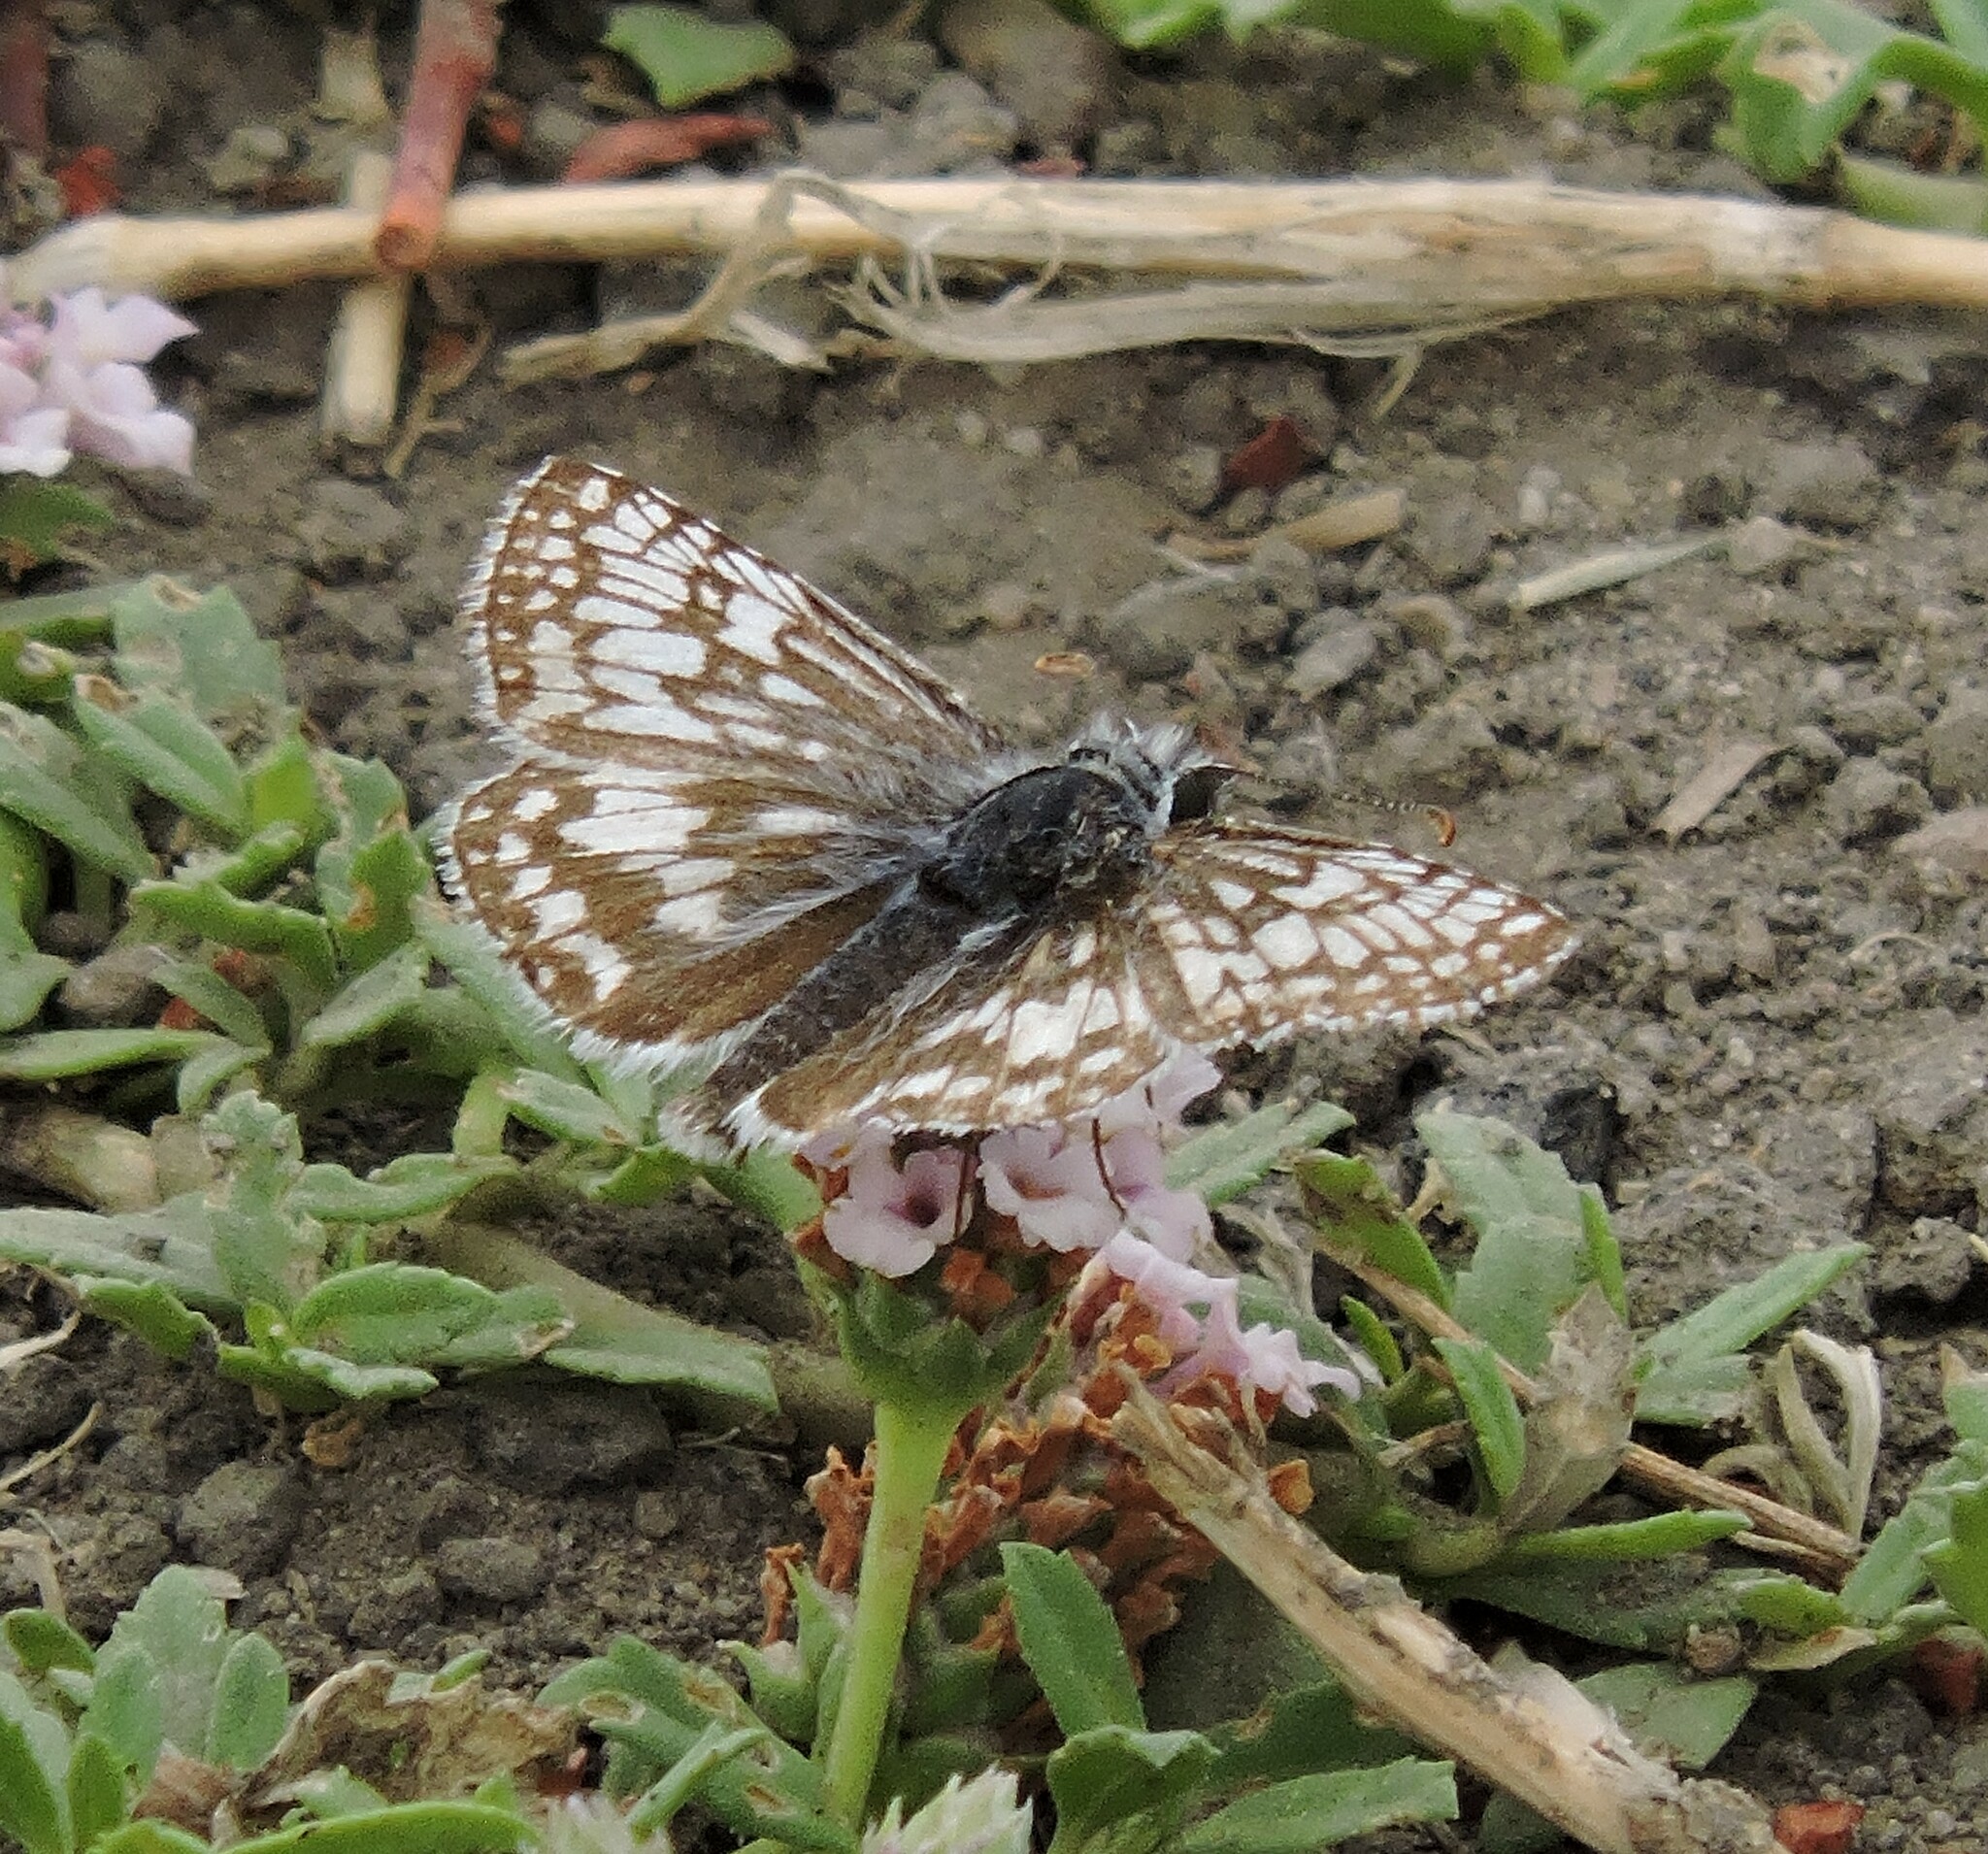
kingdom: Animalia
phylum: Arthropoda
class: Insecta
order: Lepidoptera
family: Hesperiidae
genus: Burnsius
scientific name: Burnsius communis
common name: Common checkered-skipper
